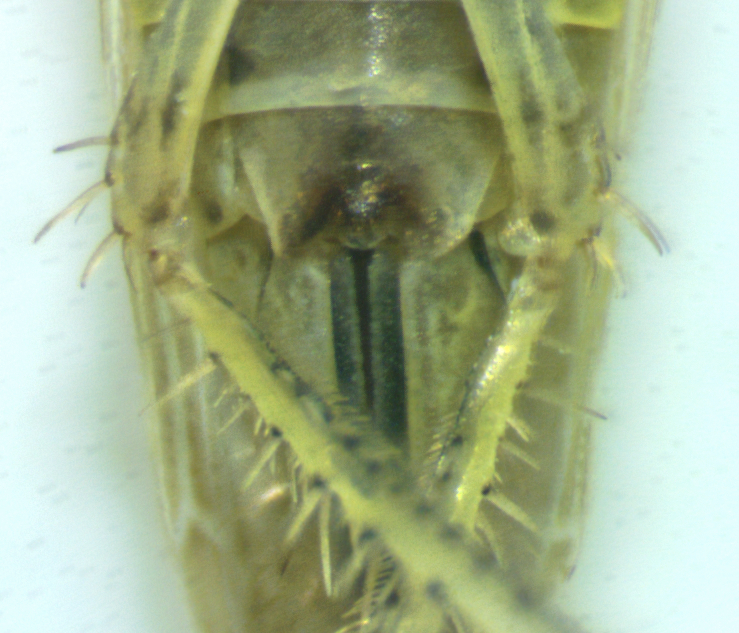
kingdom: Animalia
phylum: Arthropoda
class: Insecta
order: Hemiptera
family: Cicadellidae
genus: Graminella
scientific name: Graminella fitchii
